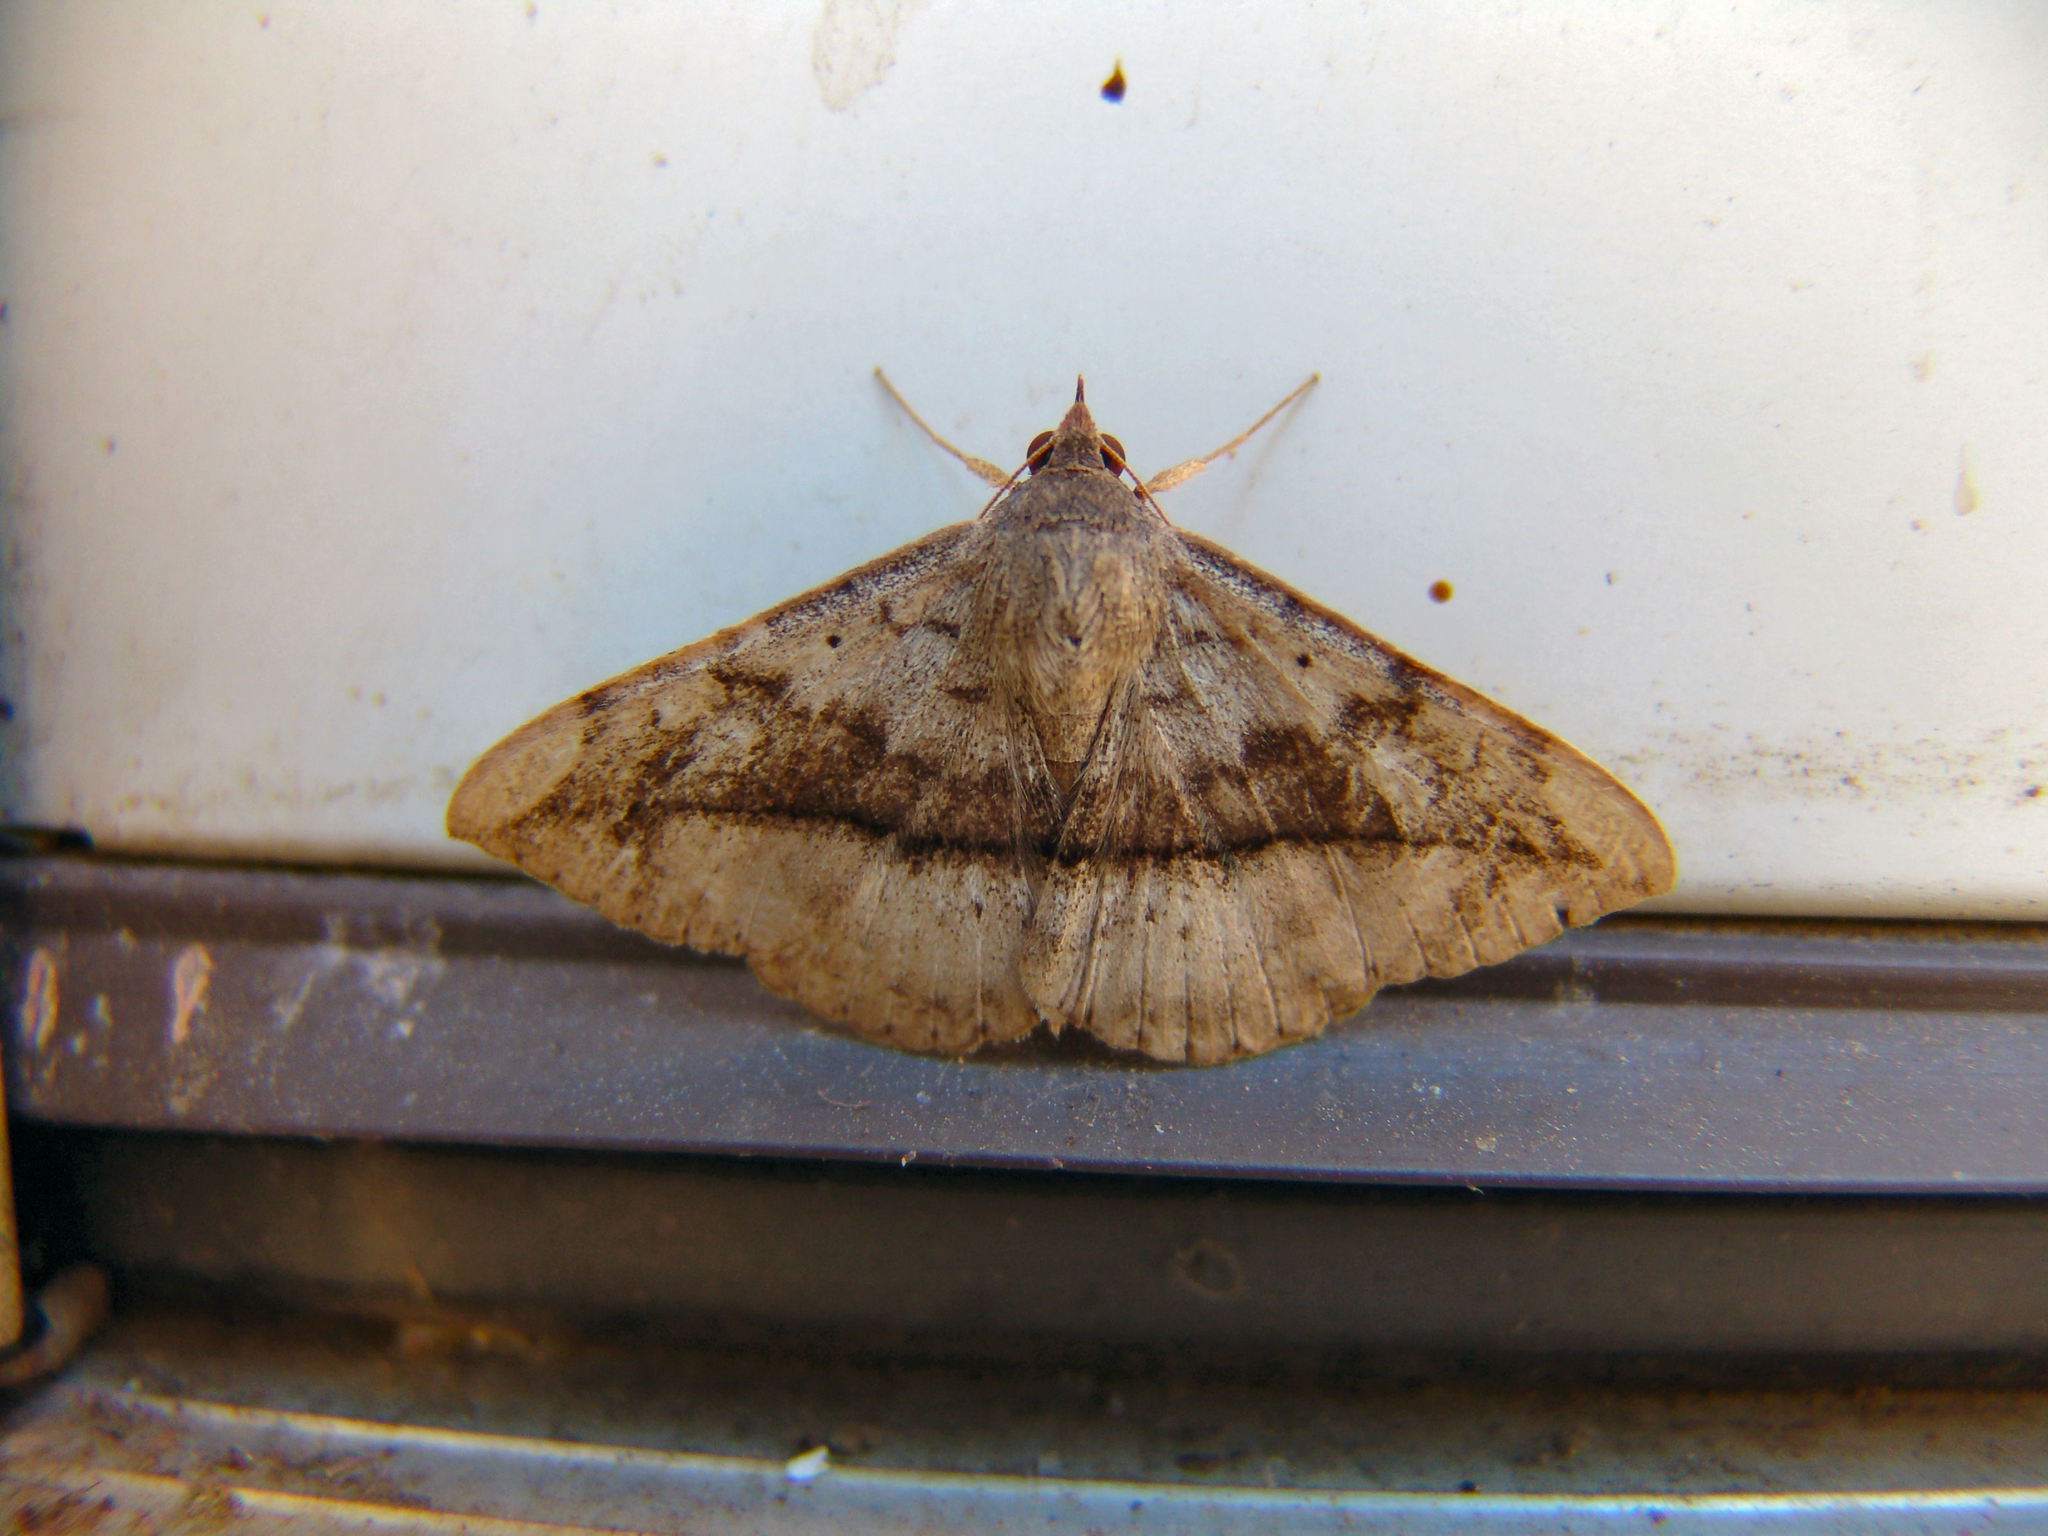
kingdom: Animalia
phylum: Arthropoda
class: Insecta
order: Lepidoptera
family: Erebidae
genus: Anticarsia
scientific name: Anticarsia gemmatalis
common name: Cutworm moth
